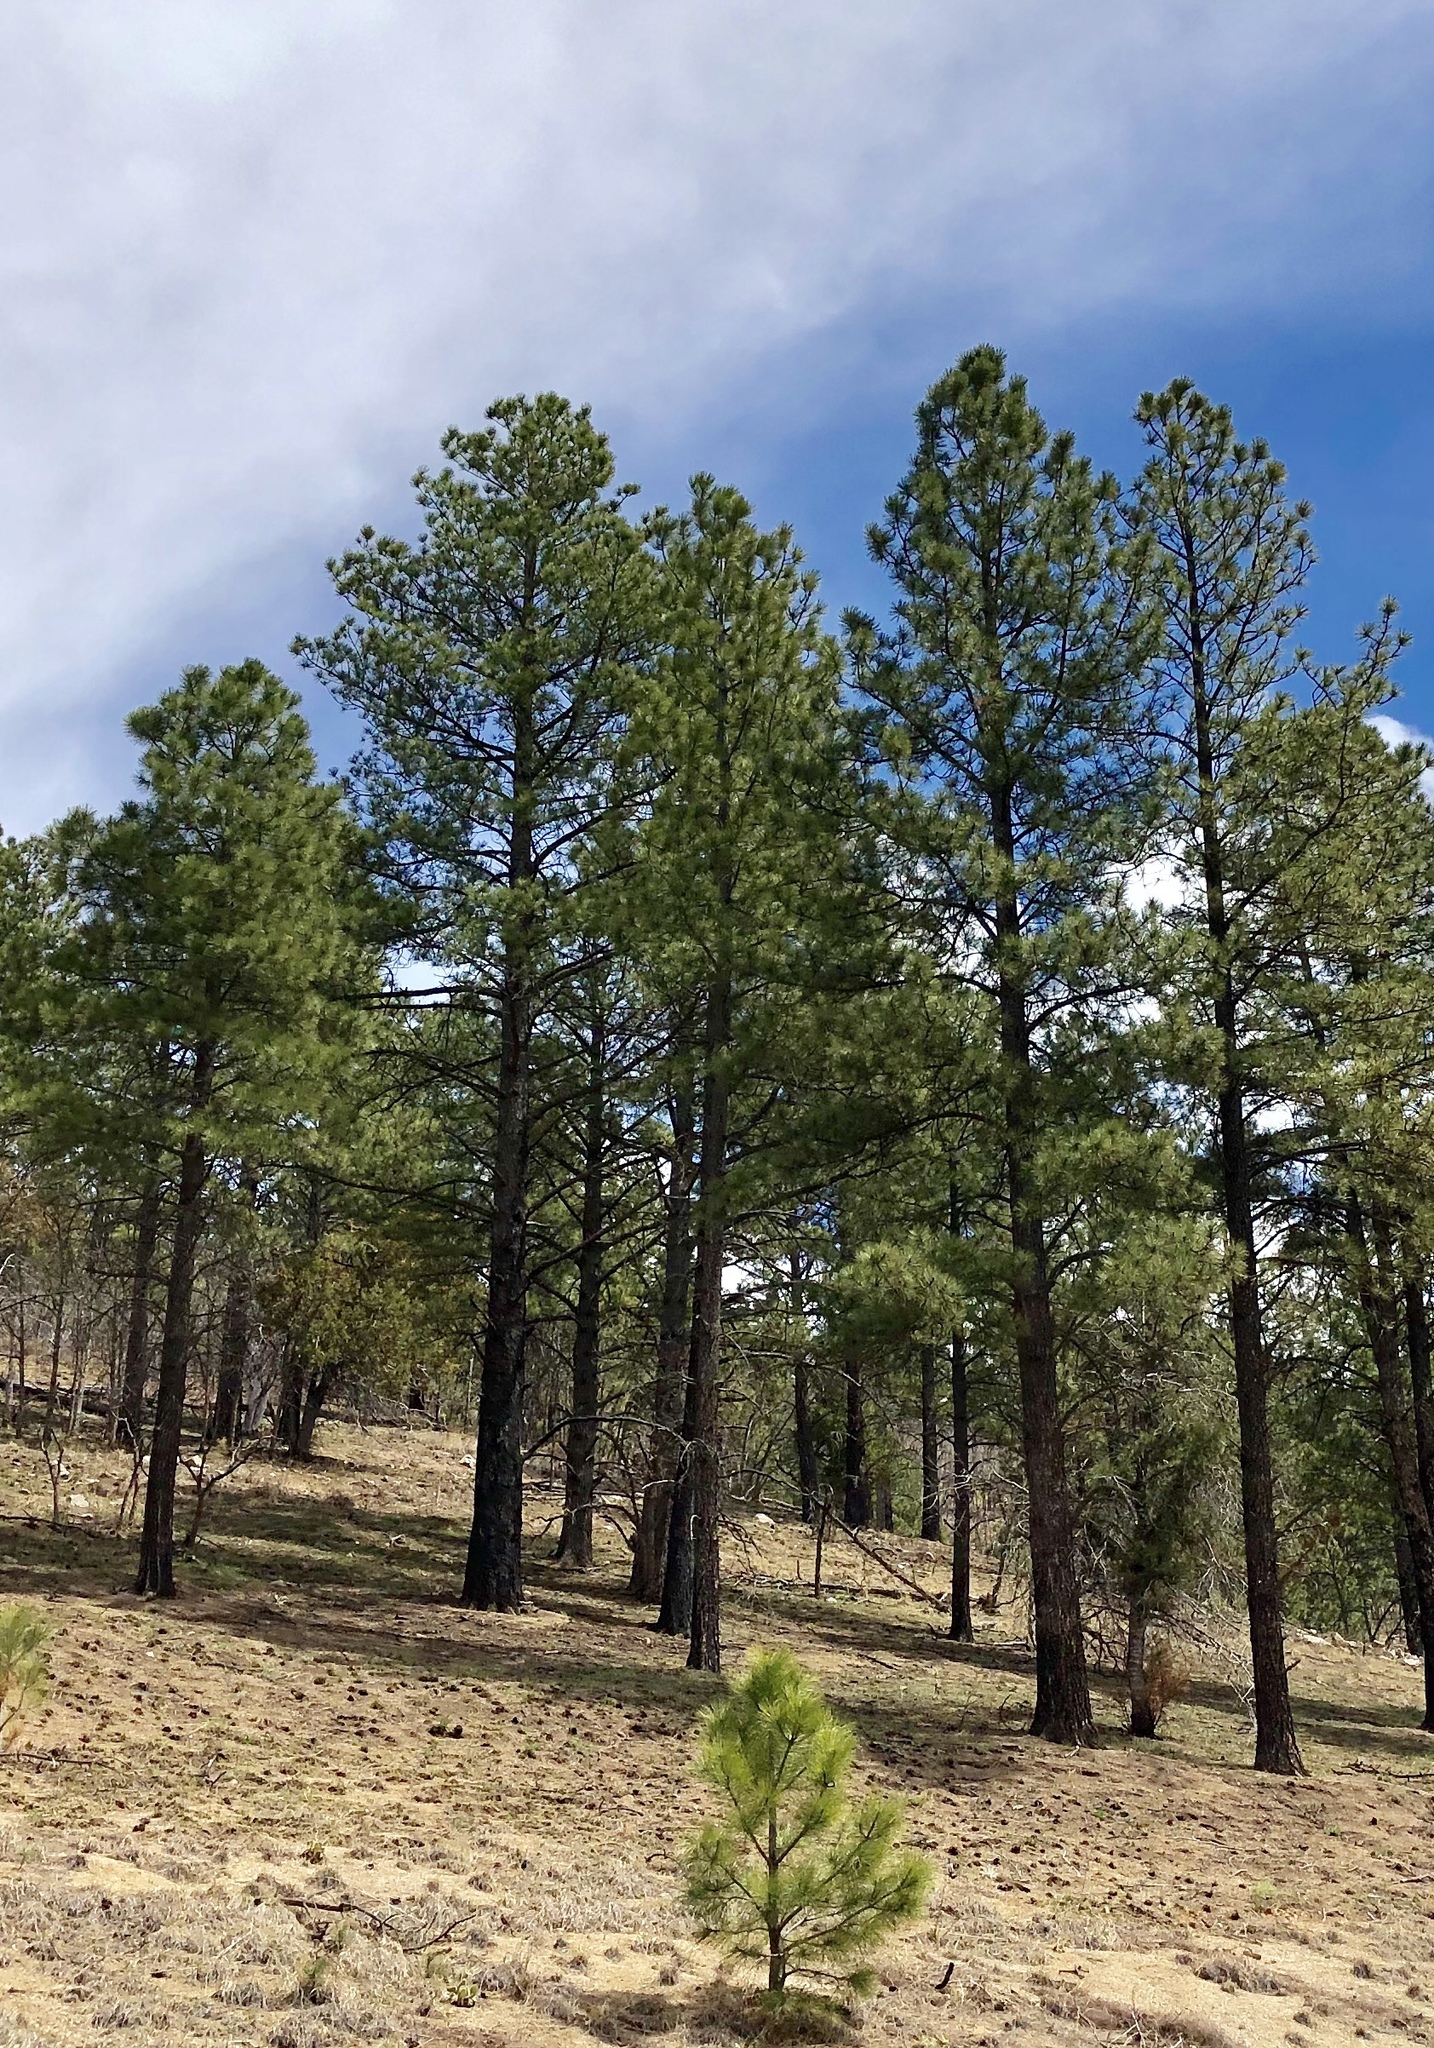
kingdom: Plantae
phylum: Tracheophyta
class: Pinopsida
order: Pinales
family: Pinaceae
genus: Pinus
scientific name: Pinus ponderosa
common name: Western yellow-pine
